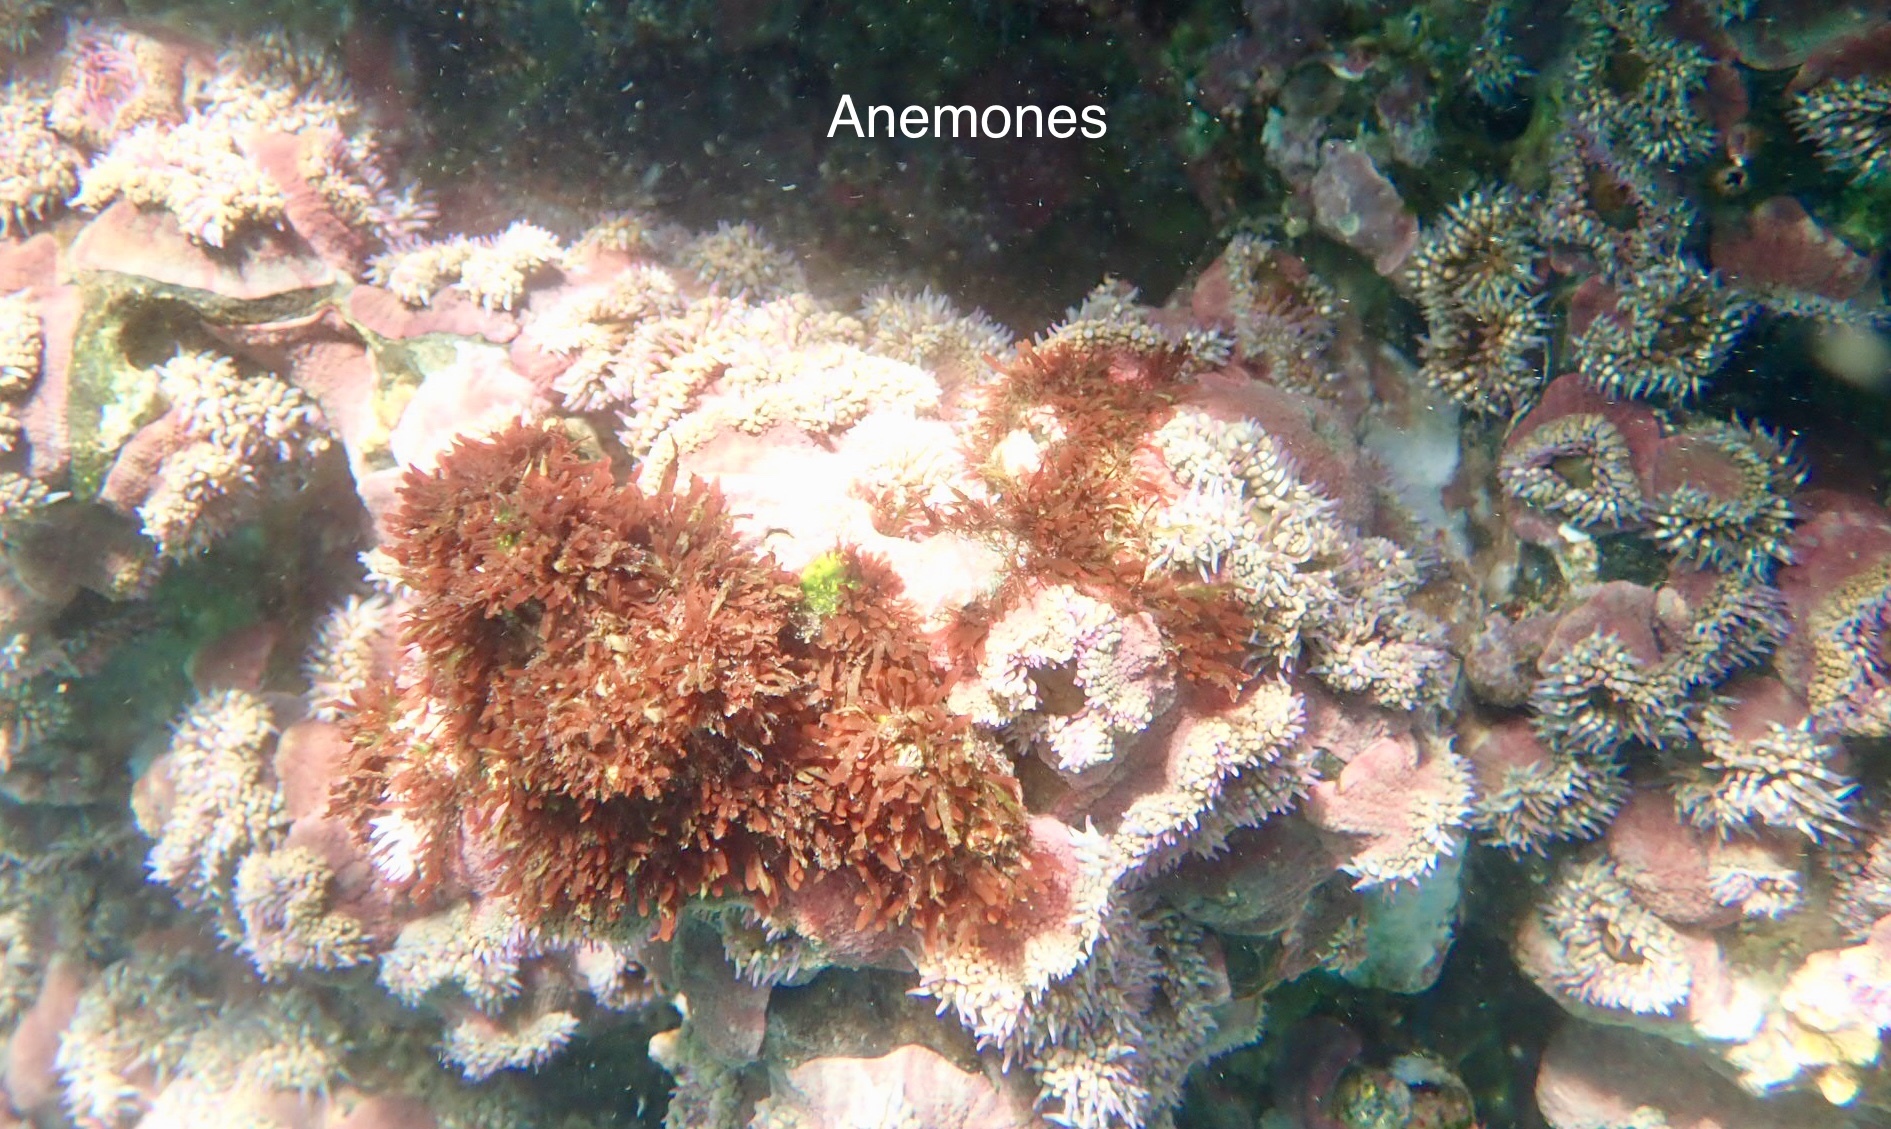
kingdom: Animalia
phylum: Cnidaria
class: Anthozoa
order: Actiniaria
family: Actiniidae
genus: Bunodosoma
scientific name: Bunodosoma grande
